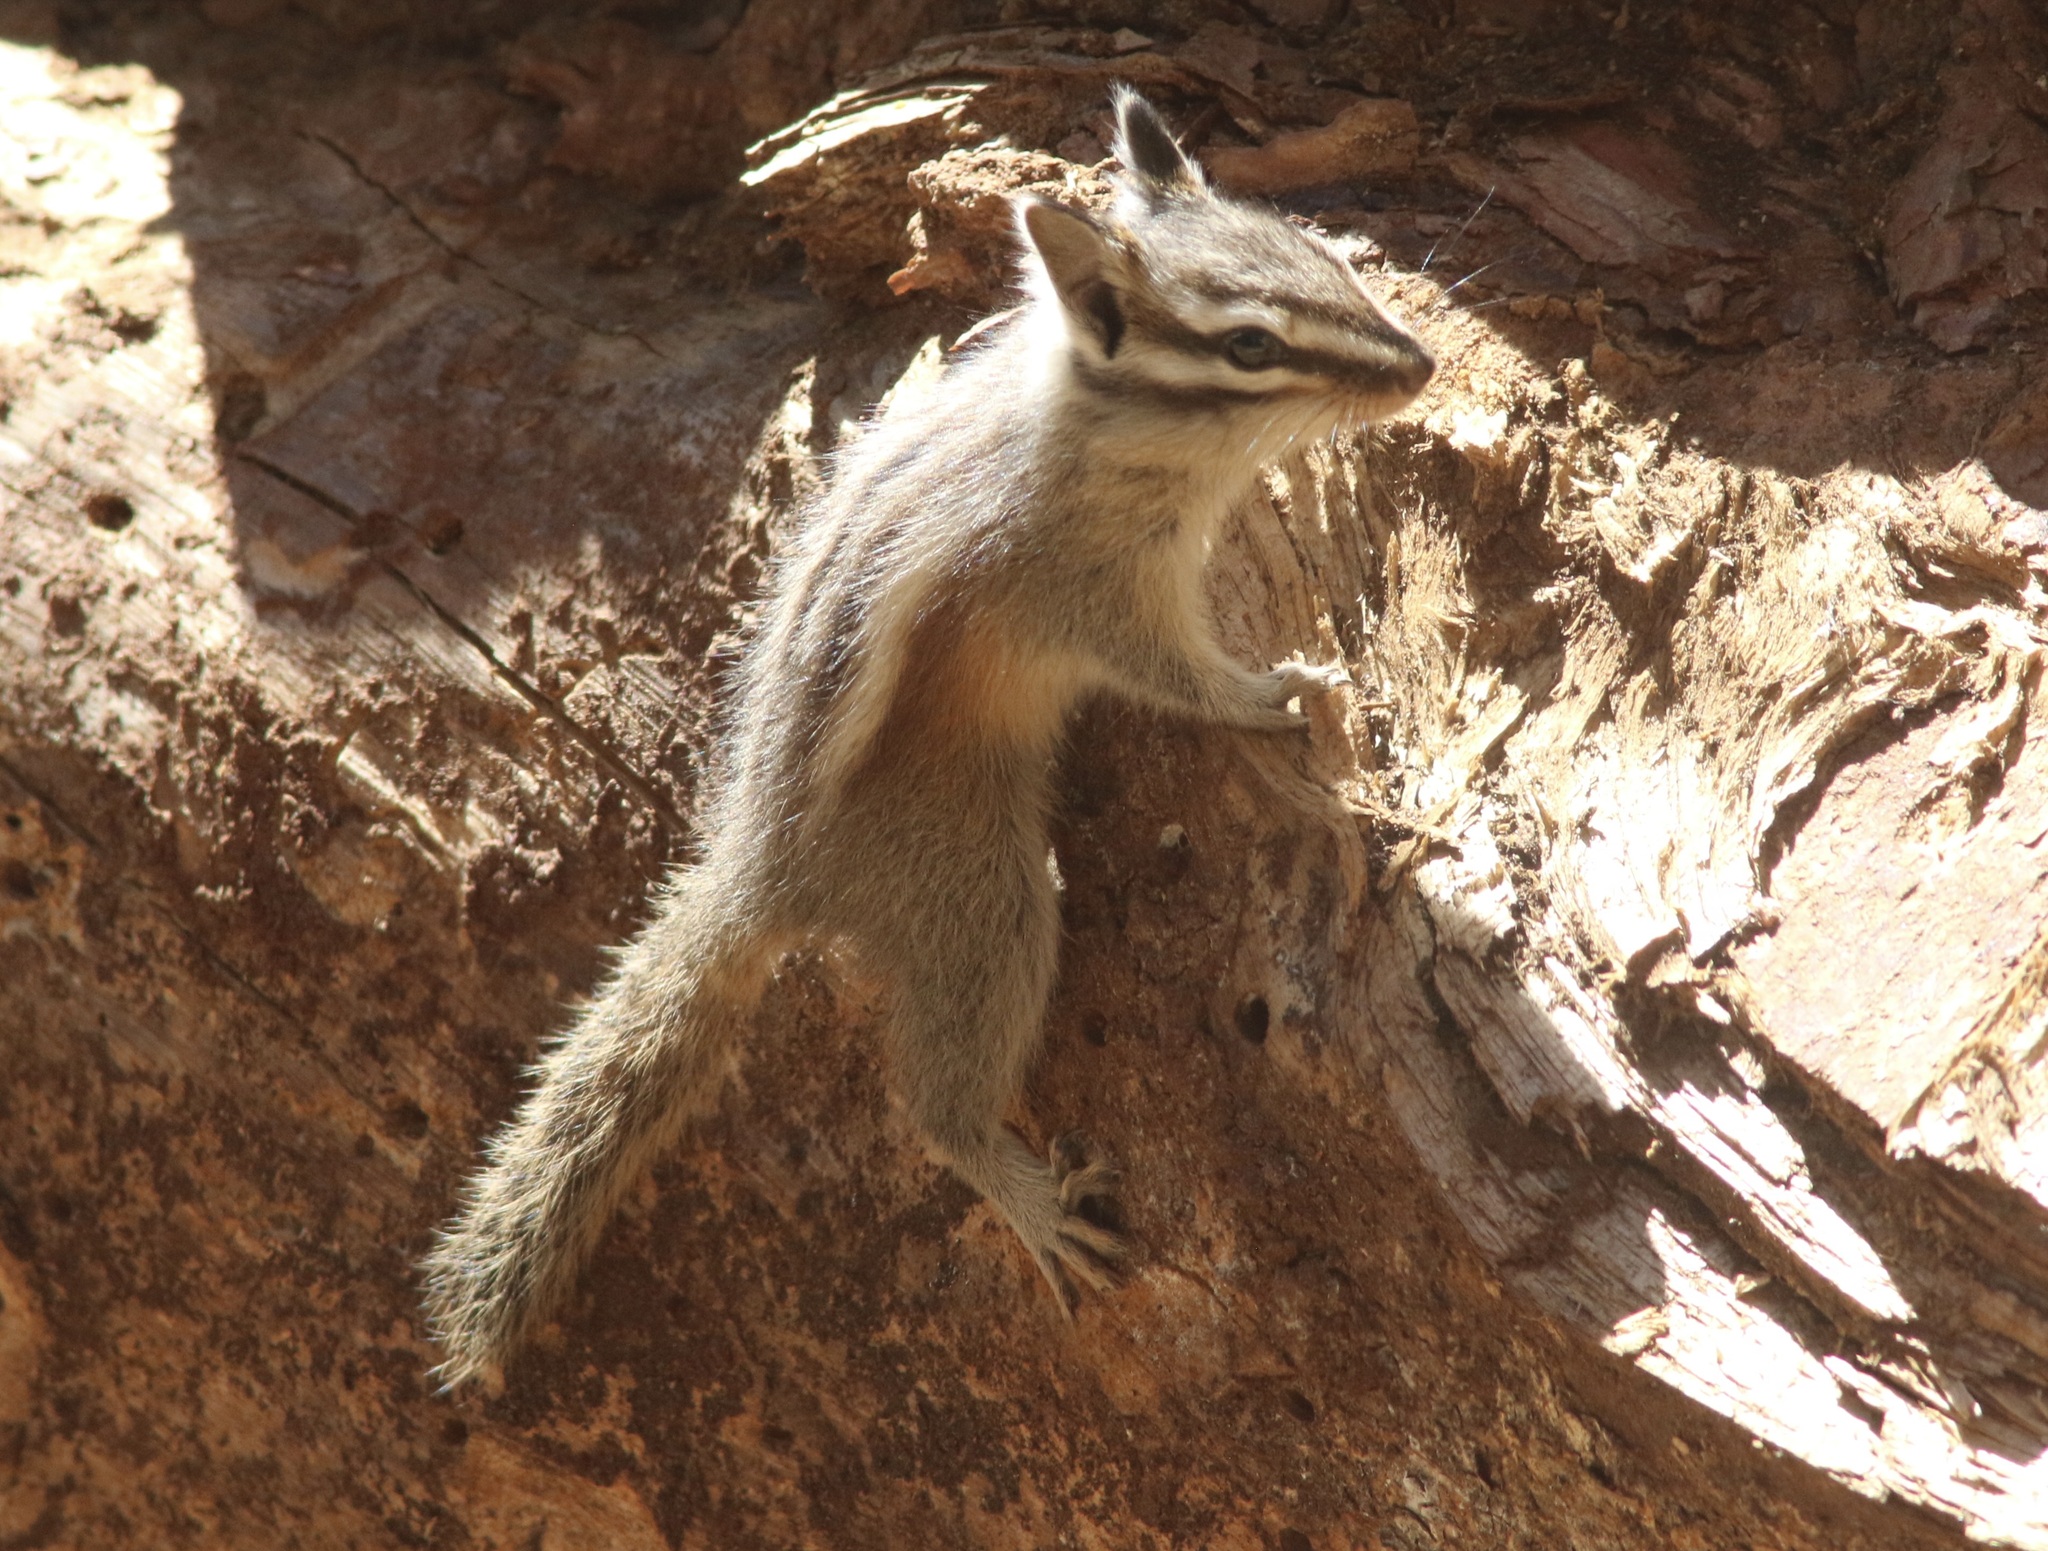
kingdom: Animalia
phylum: Chordata
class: Mammalia
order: Rodentia
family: Sciuridae
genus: Tamias
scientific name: Tamias speciosus
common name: Lodgepole chipmunk
